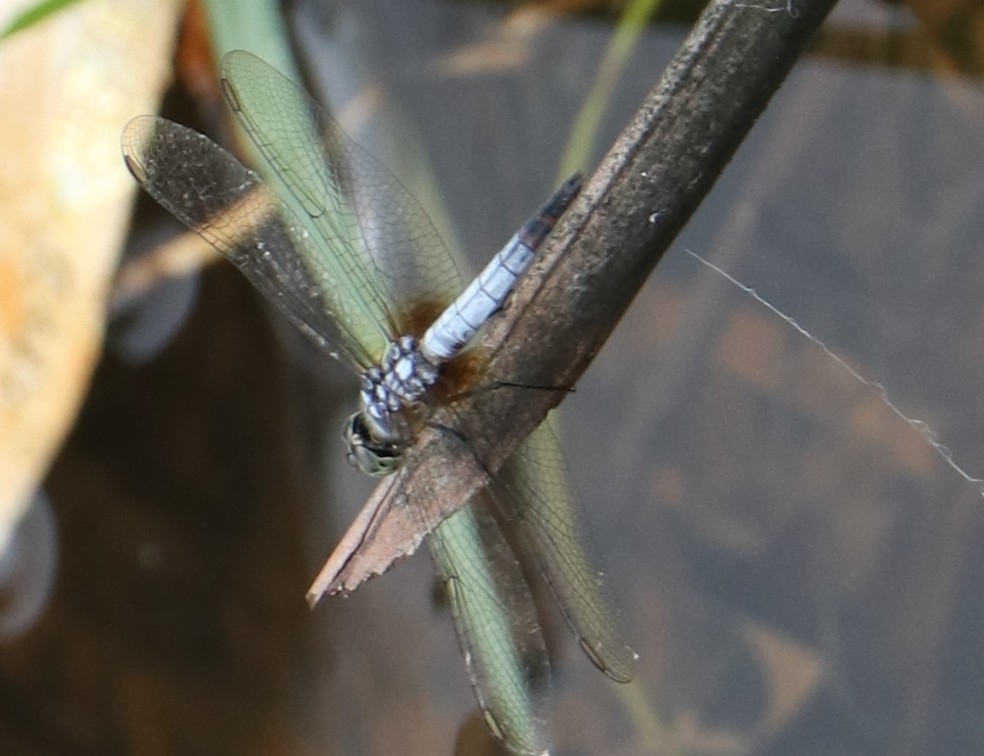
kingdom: Animalia
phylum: Arthropoda
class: Insecta
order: Odonata
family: Libellulidae
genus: Brachydiplax
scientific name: Brachydiplax chalybea
